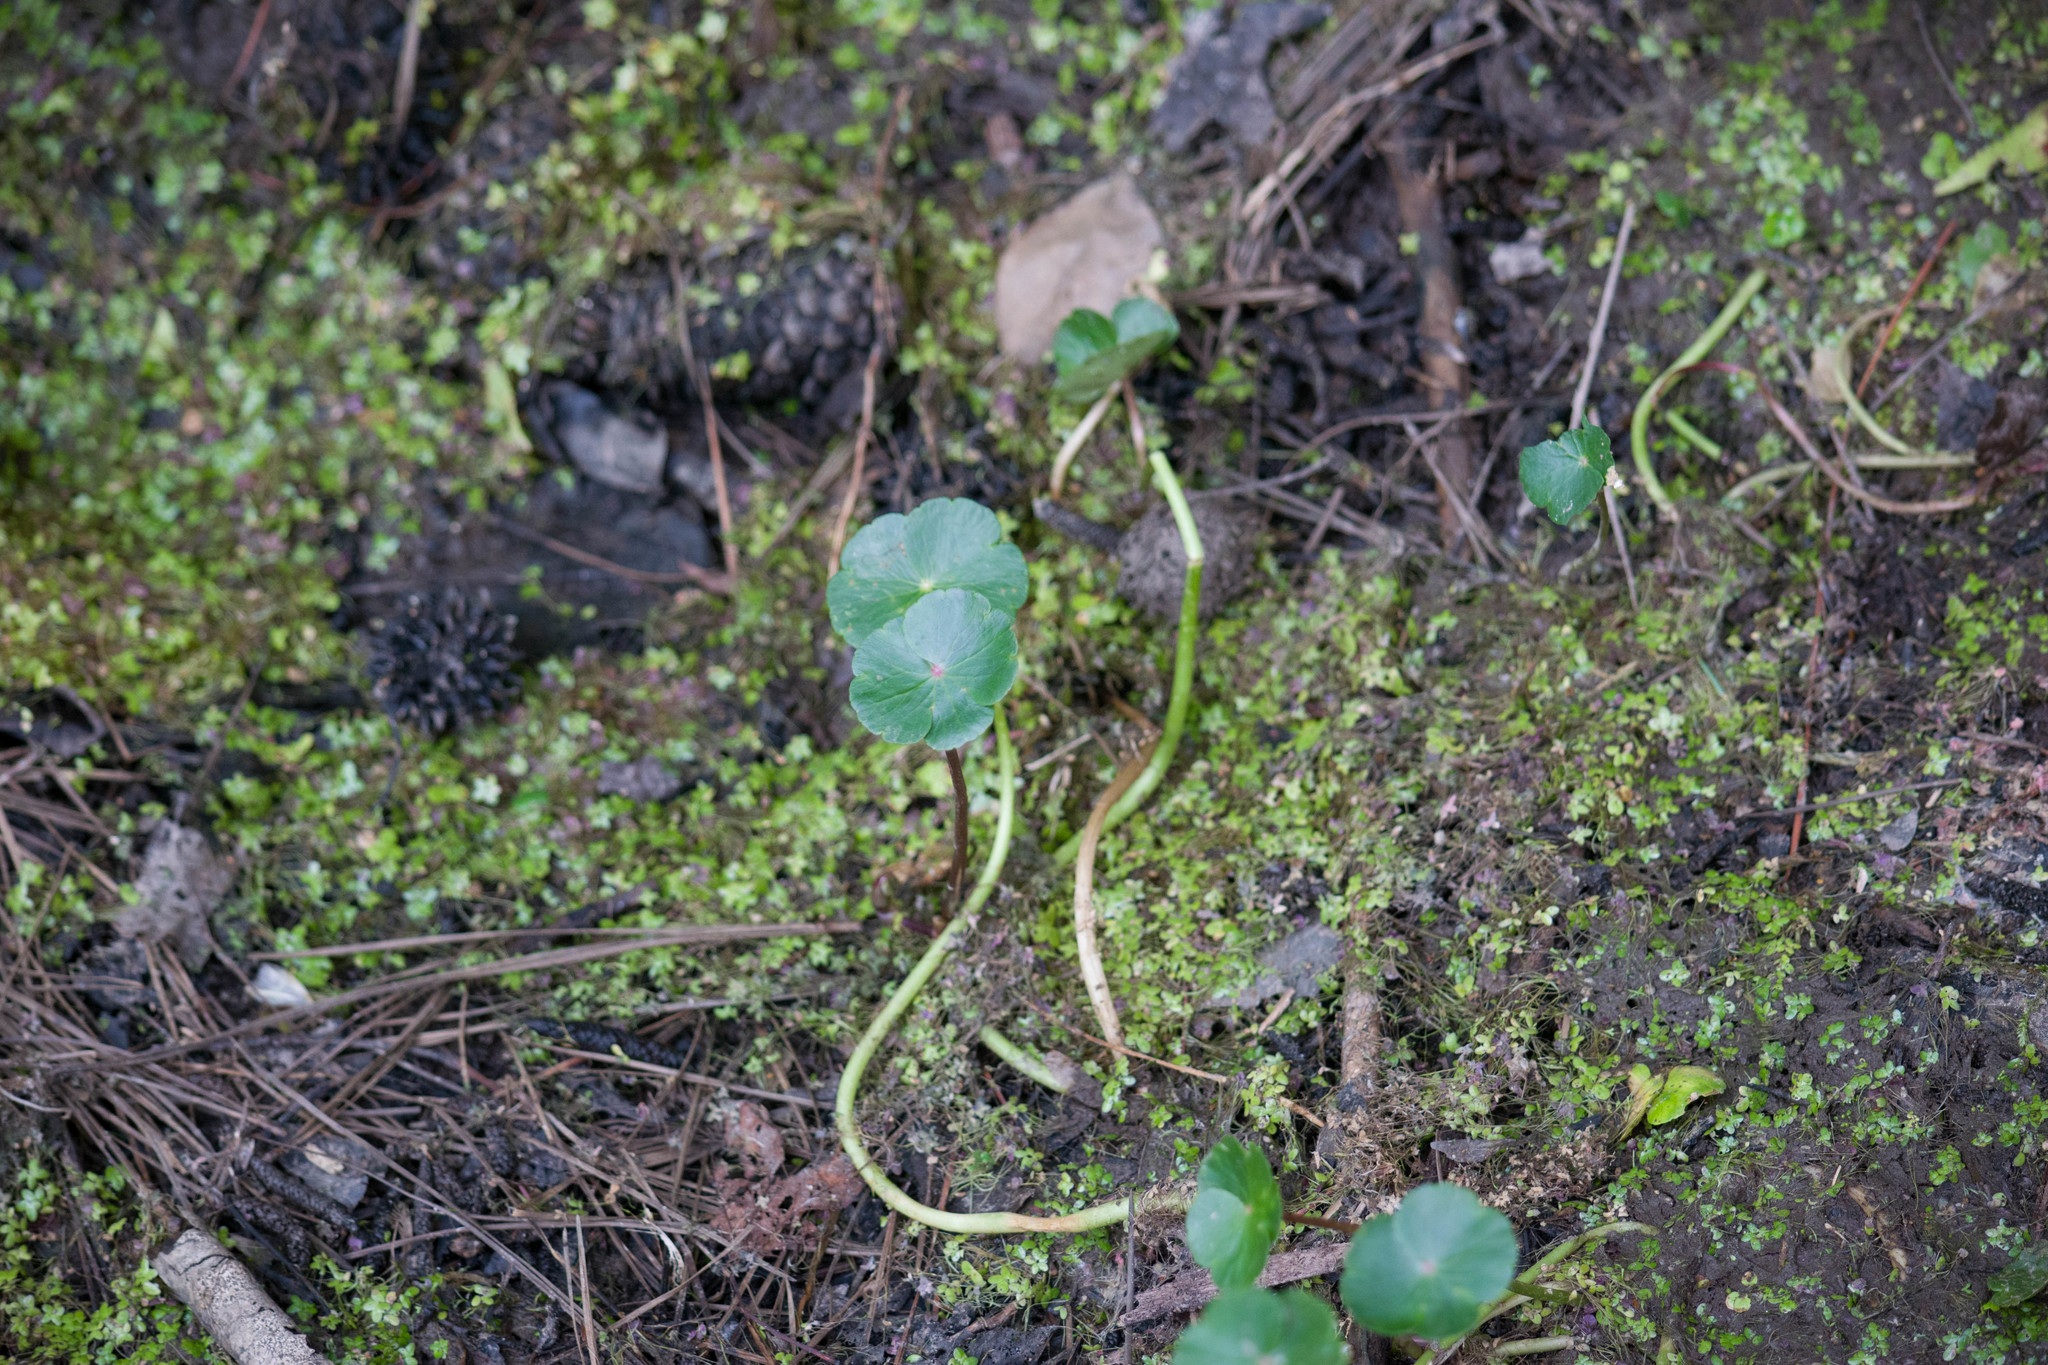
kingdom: Plantae
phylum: Tracheophyta
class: Magnoliopsida
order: Apiales
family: Araliaceae
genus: Hydrocotyle
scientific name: Hydrocotyle ranunculoides
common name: Floating pennywort
